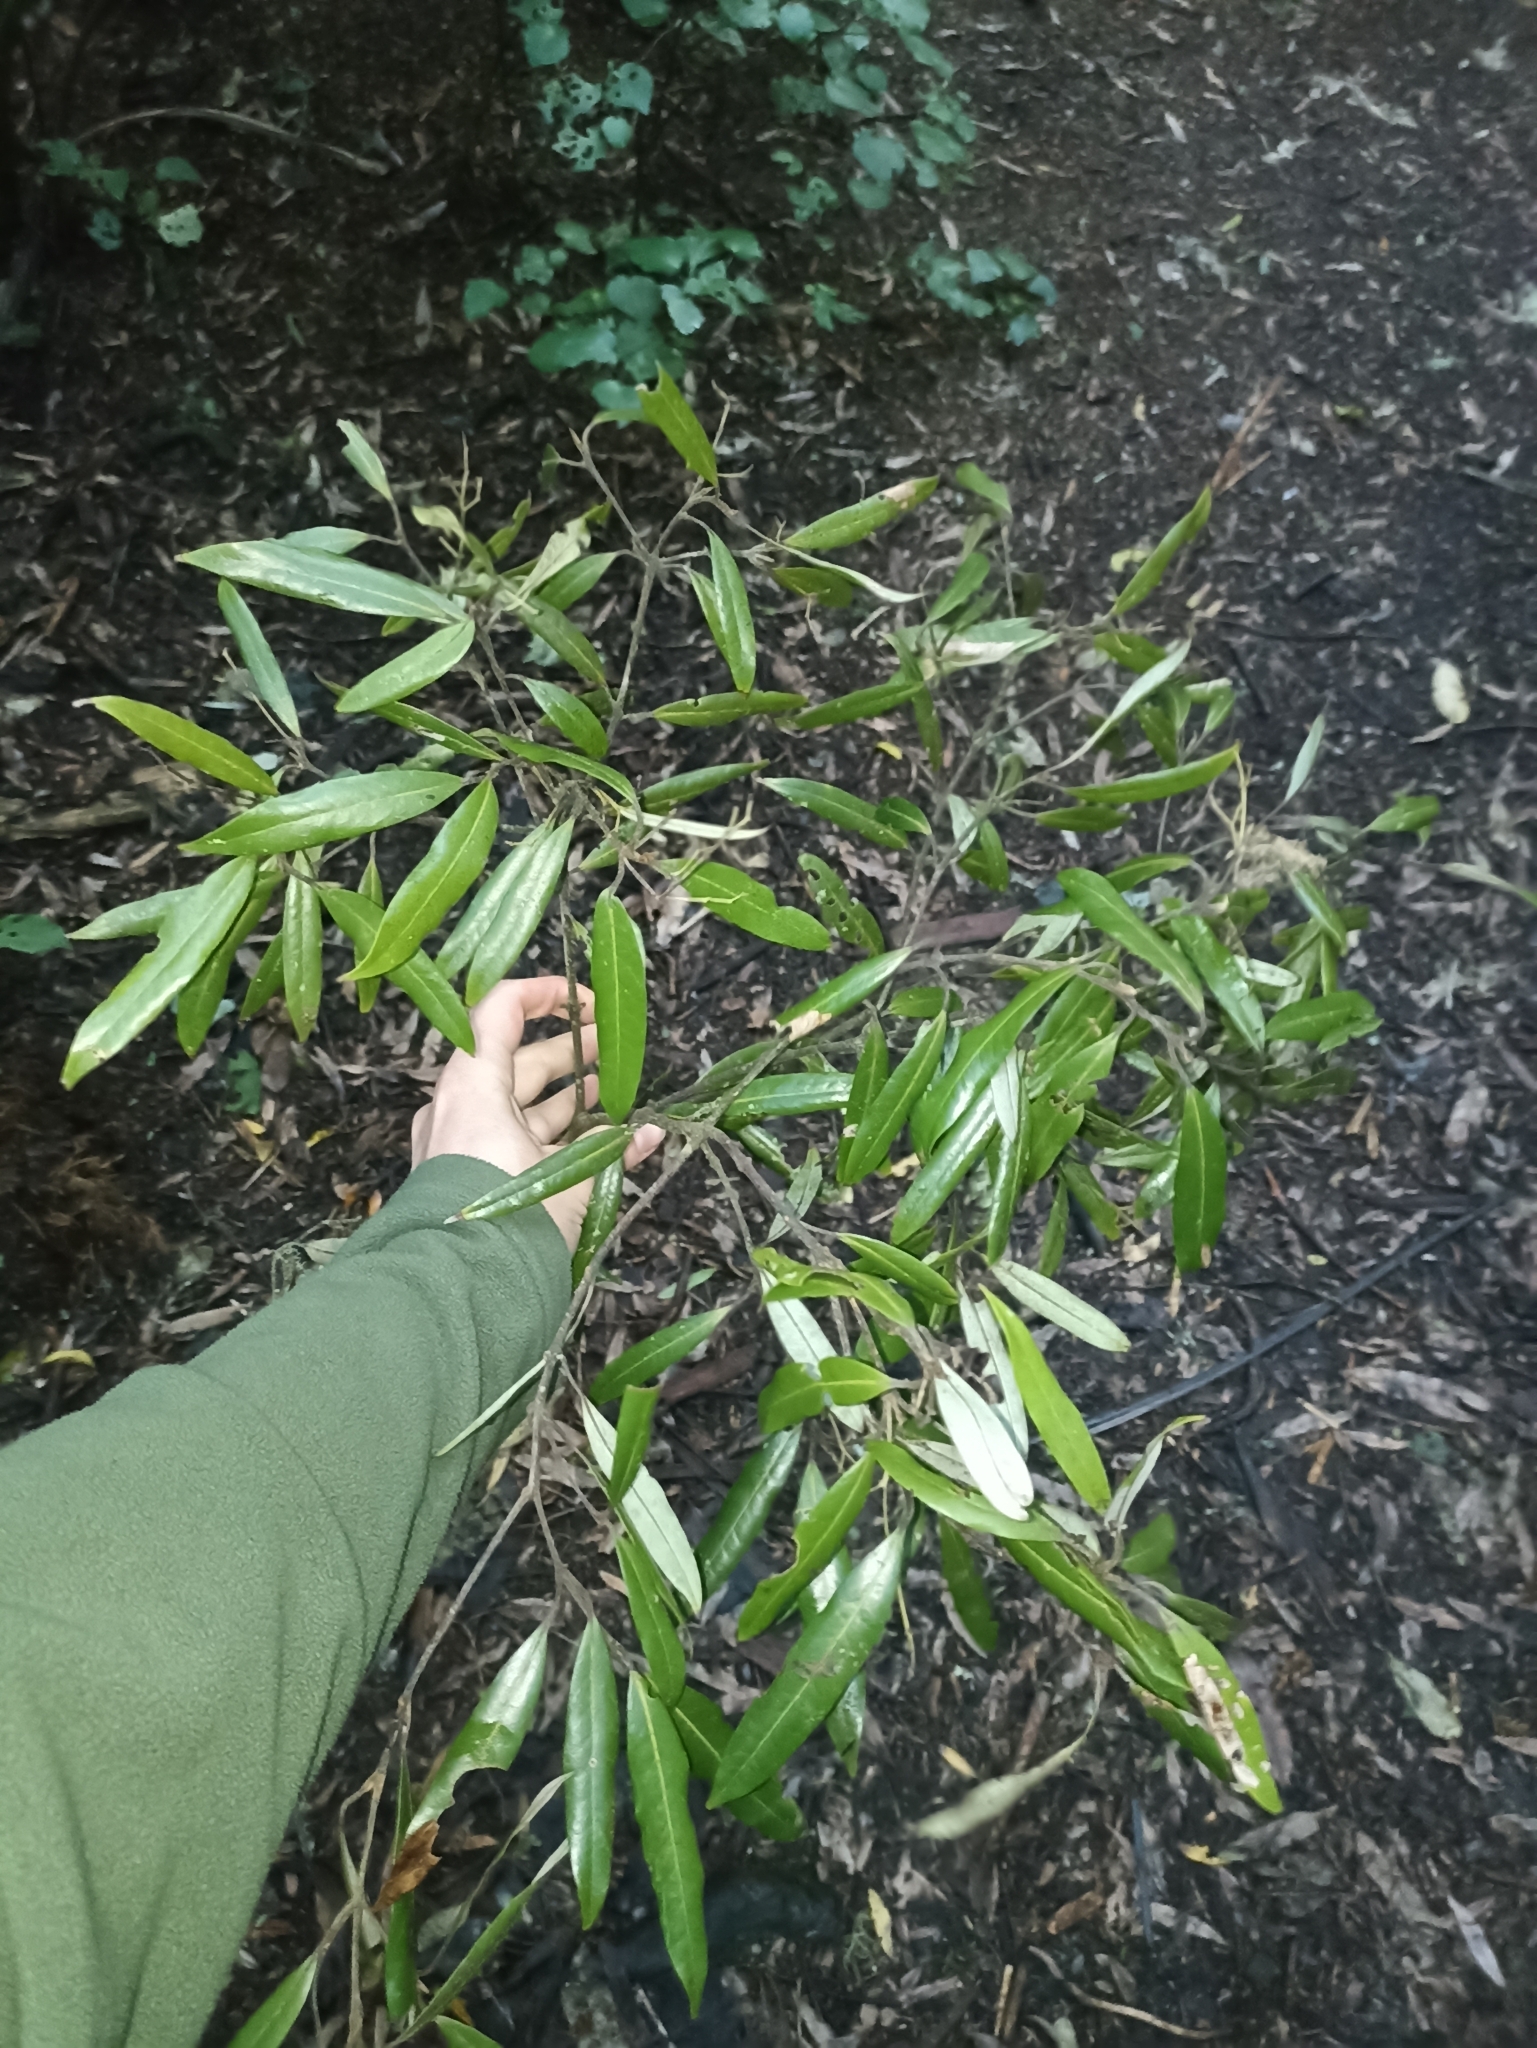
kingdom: Plantae
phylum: Tracheophyta
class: Magnoliopsida
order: Laurales
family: Lauraceae
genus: Beilschmiedia
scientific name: Beilschmiedia tawa
